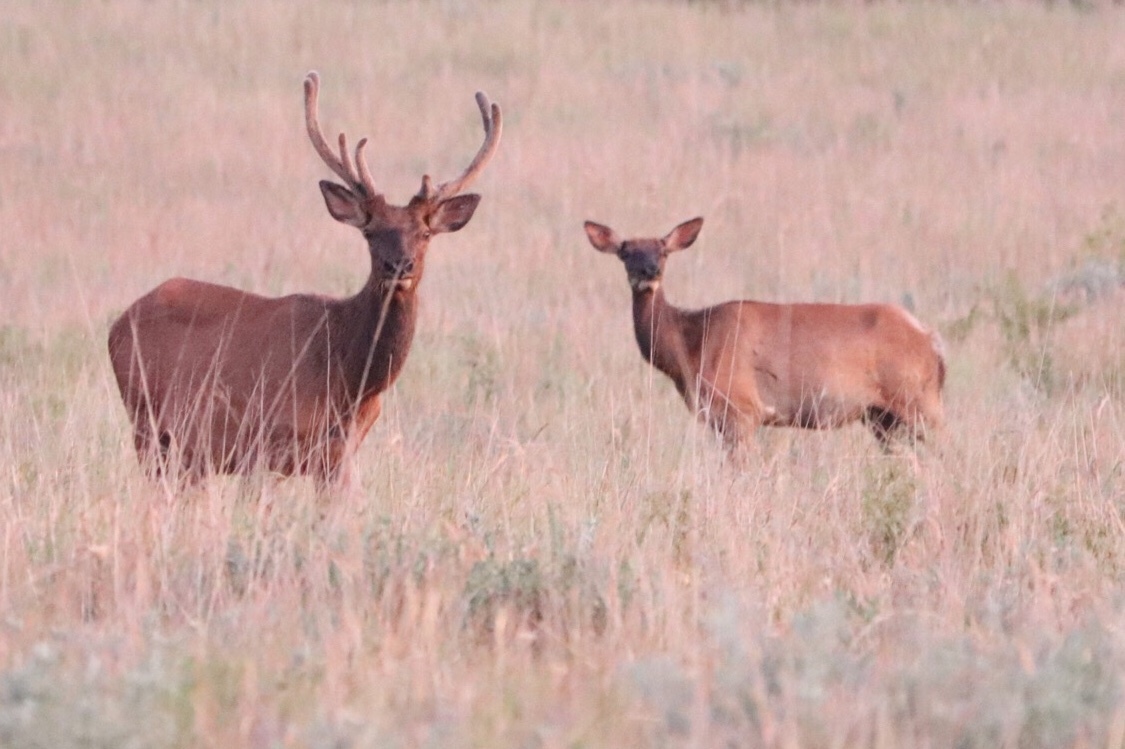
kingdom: Animalia
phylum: Chordata
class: Mammalia
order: Artiodactyla
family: Cervidae
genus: Cervus
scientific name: Cervus elaphus
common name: Red deer
